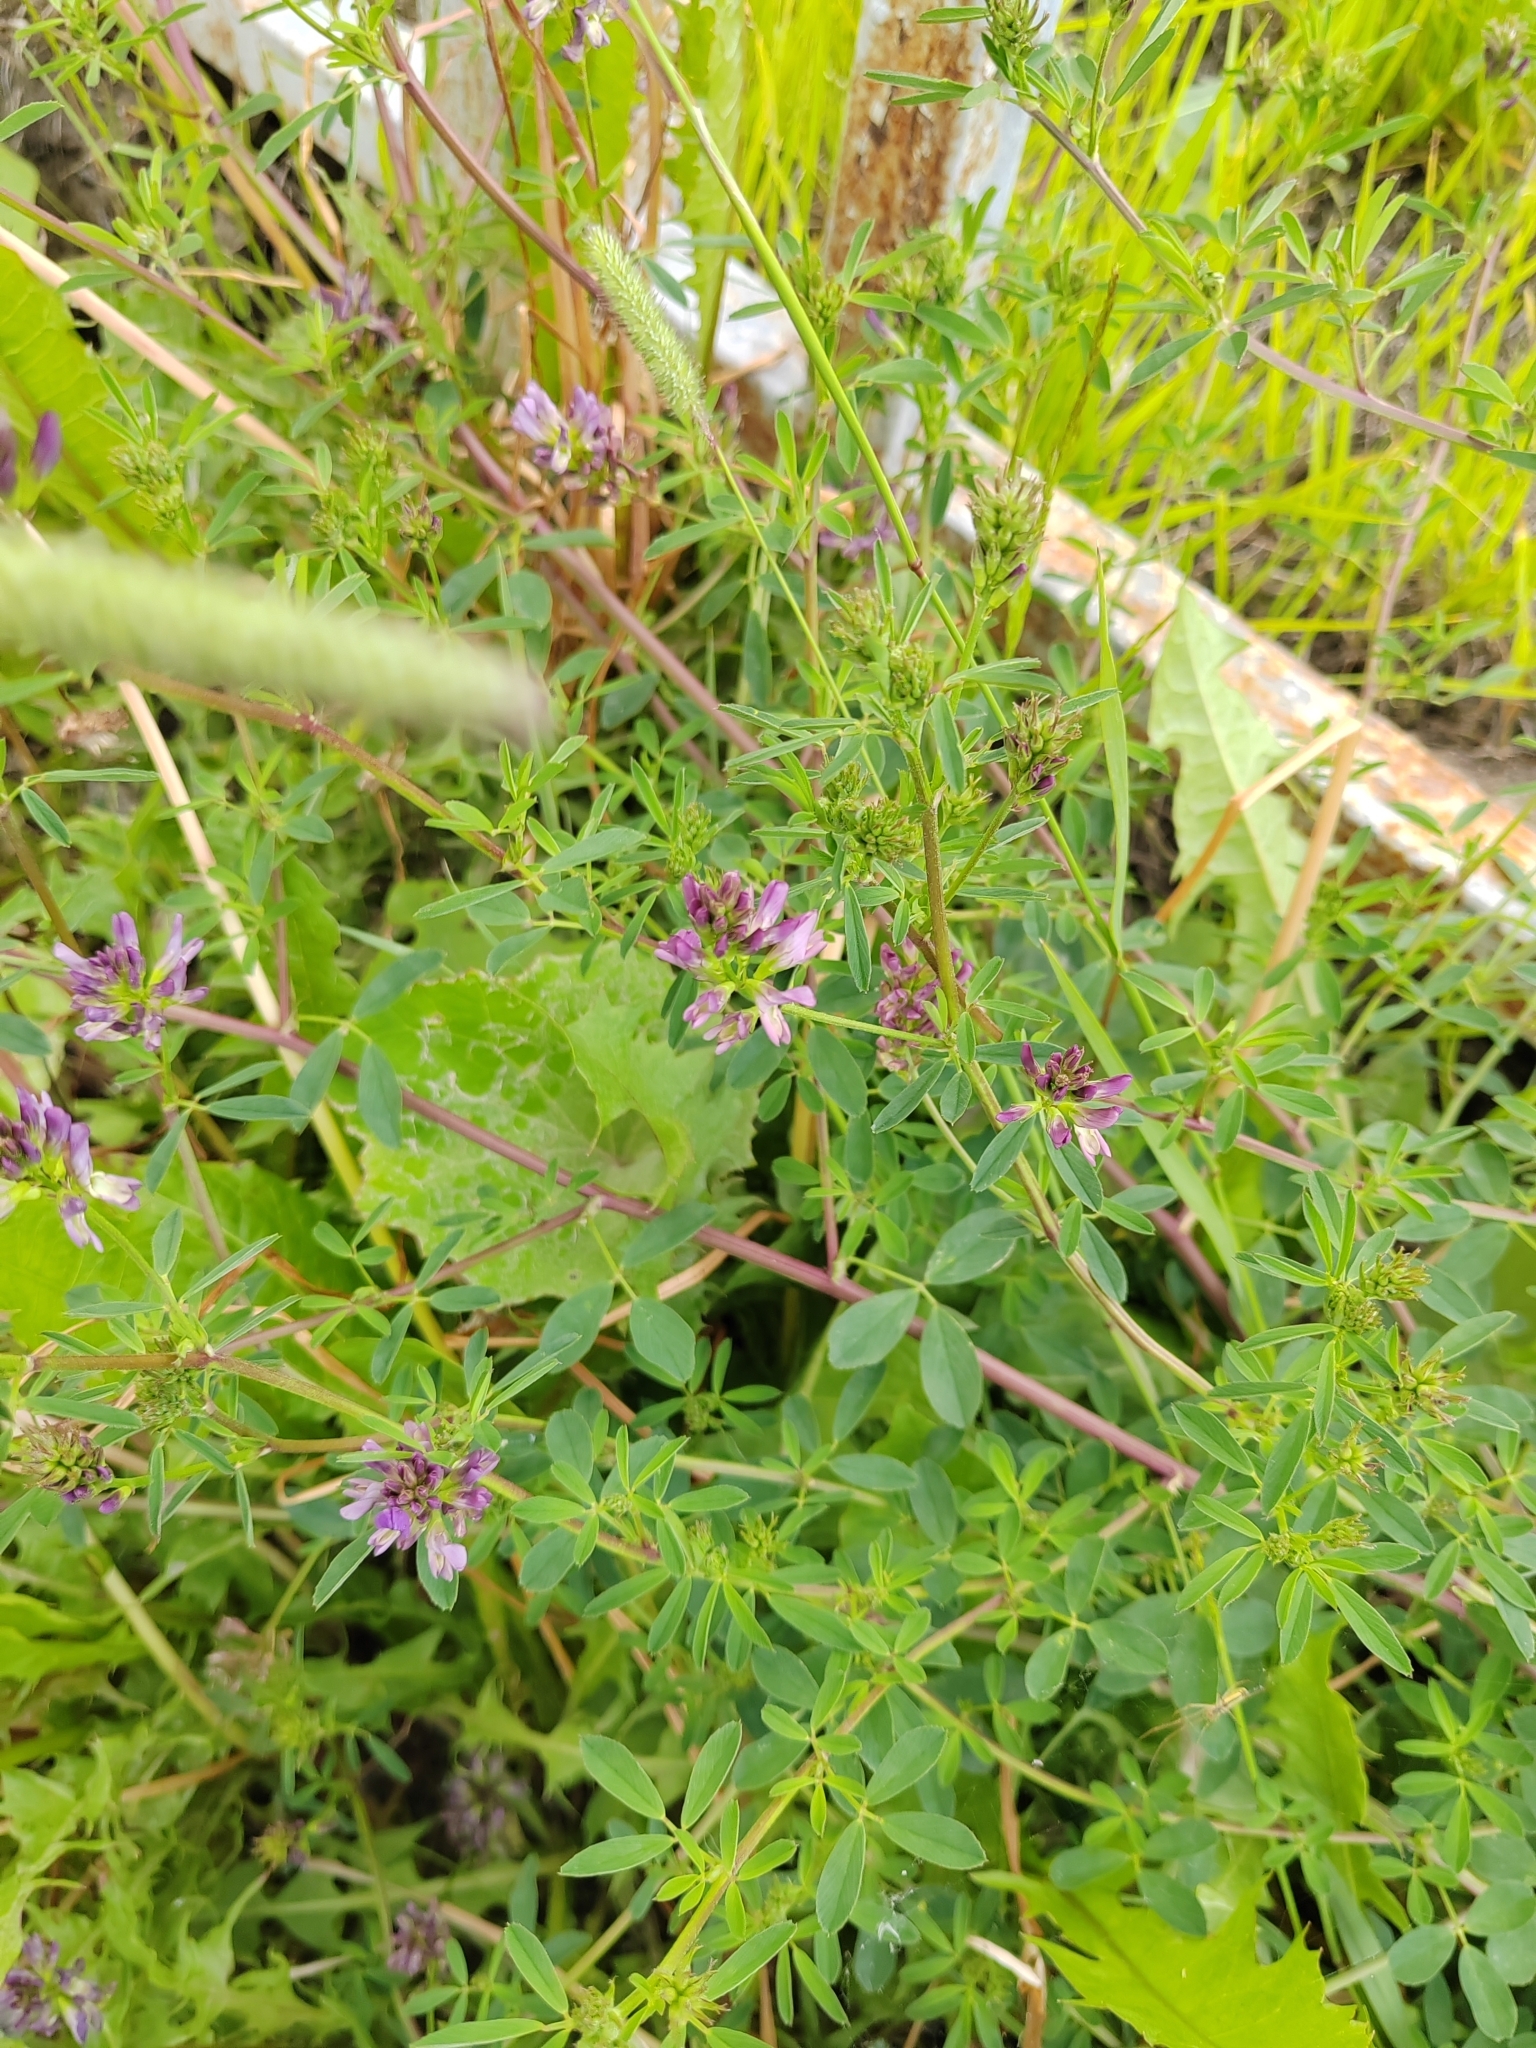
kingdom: Plantae
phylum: Tracheophyta
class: Magnoliopsida
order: Fabales
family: Fabaceae
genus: Medicago
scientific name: Medicago varia
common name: Sand lucerne
